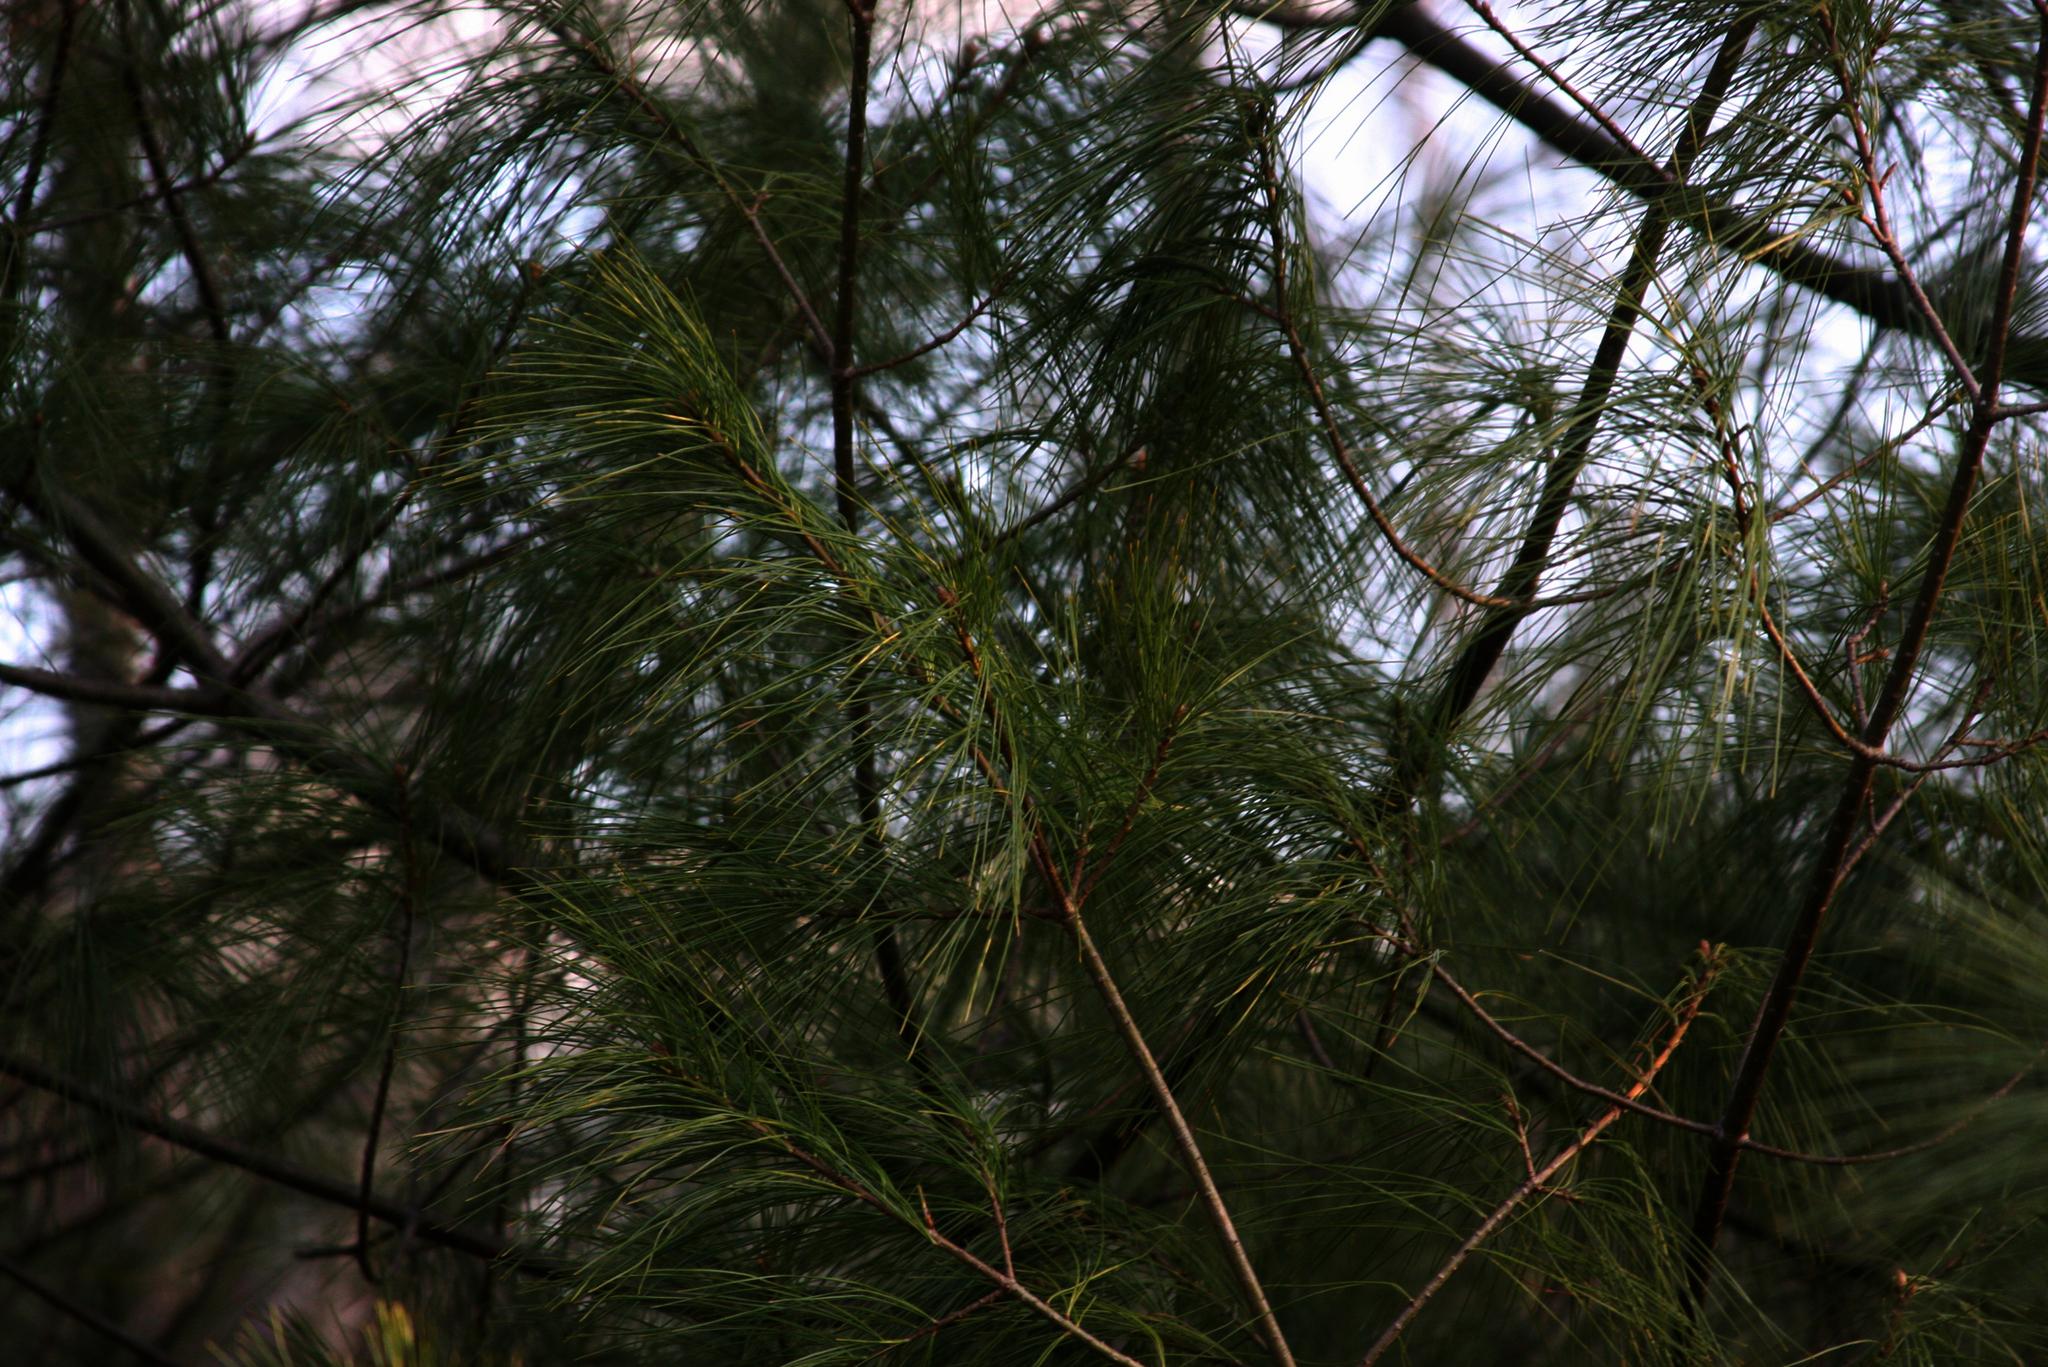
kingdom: Plantae
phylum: Tracheophyta
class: Pinopsida
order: Pinales
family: Pinaceae
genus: Pinus
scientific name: Pinus strobus
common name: Weymouth pine
